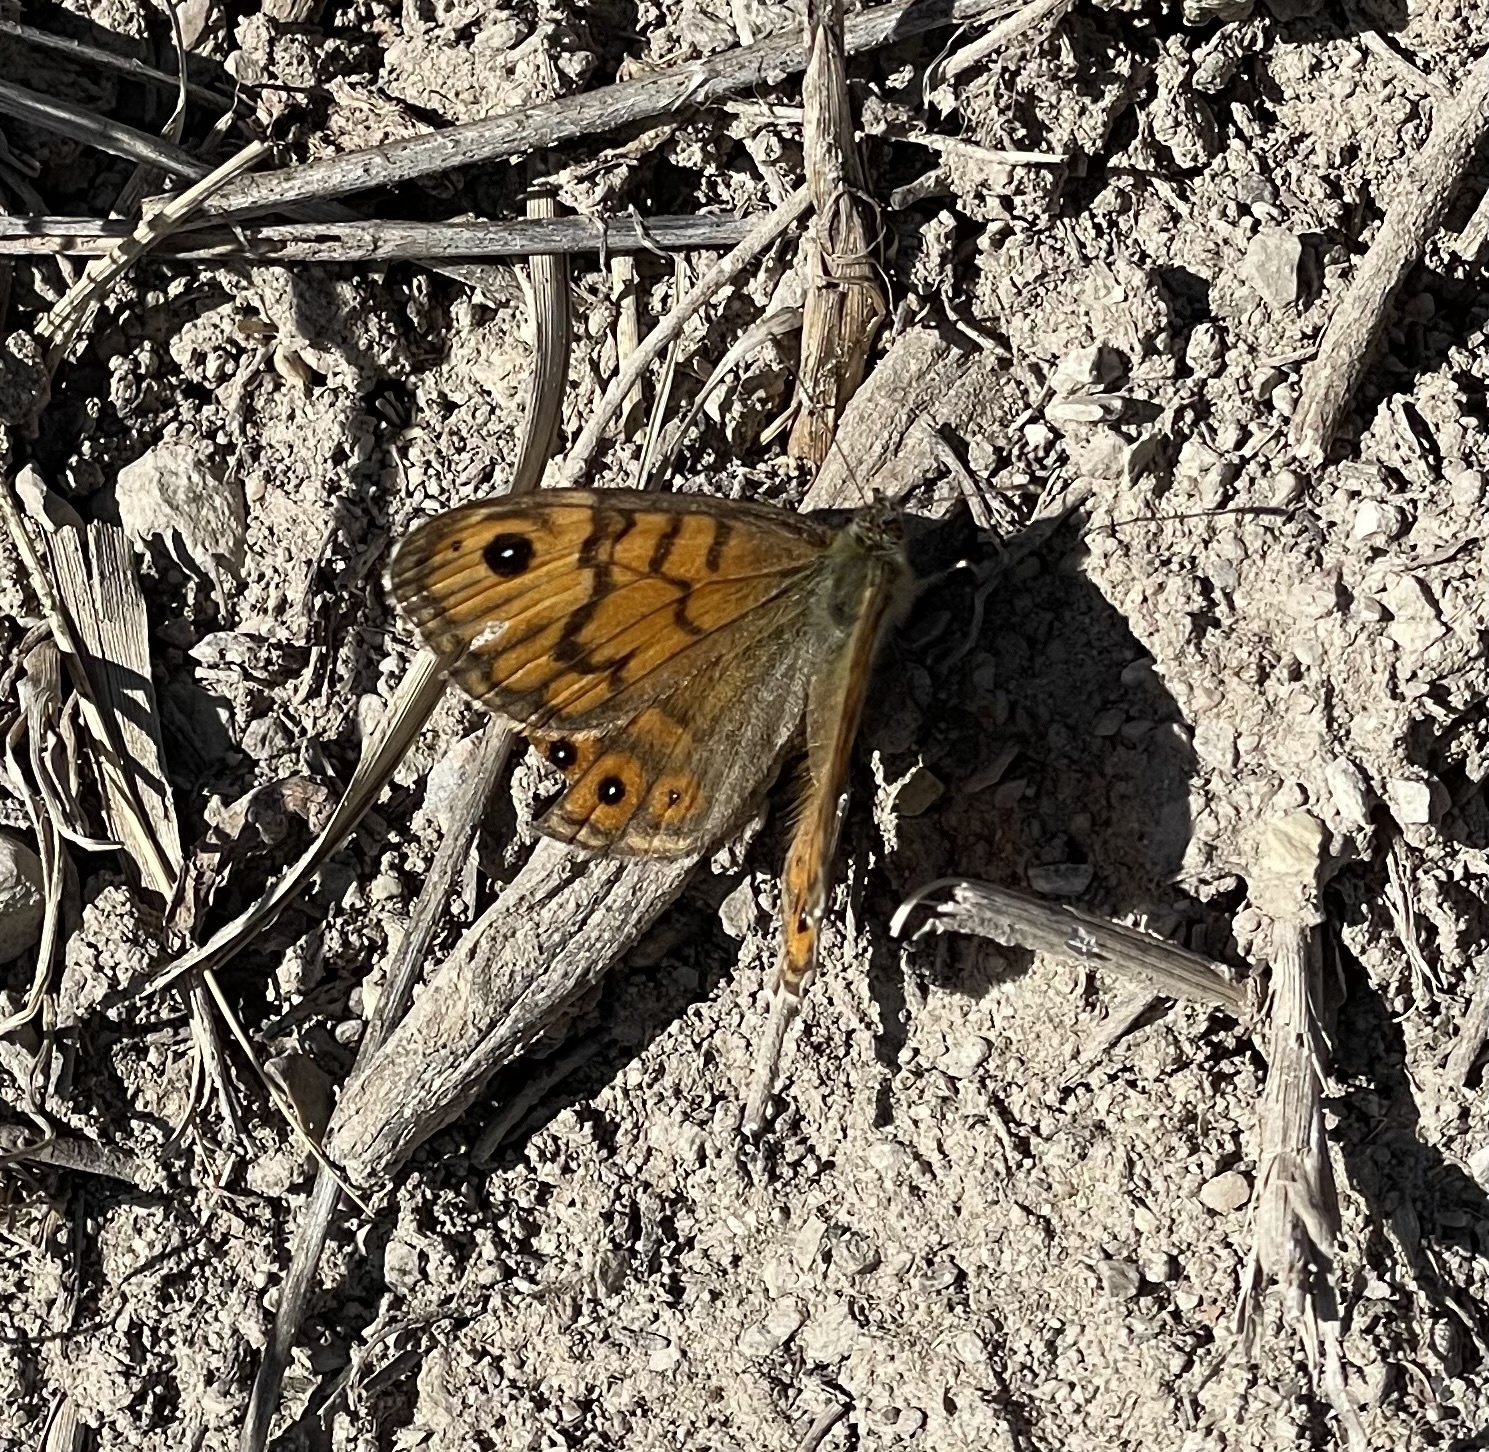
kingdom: Animalia
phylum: Arthropoda
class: Insecta
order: Lepidoptera
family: Nymphalidae
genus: Pararge
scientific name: Pararge Lasiommata megera
